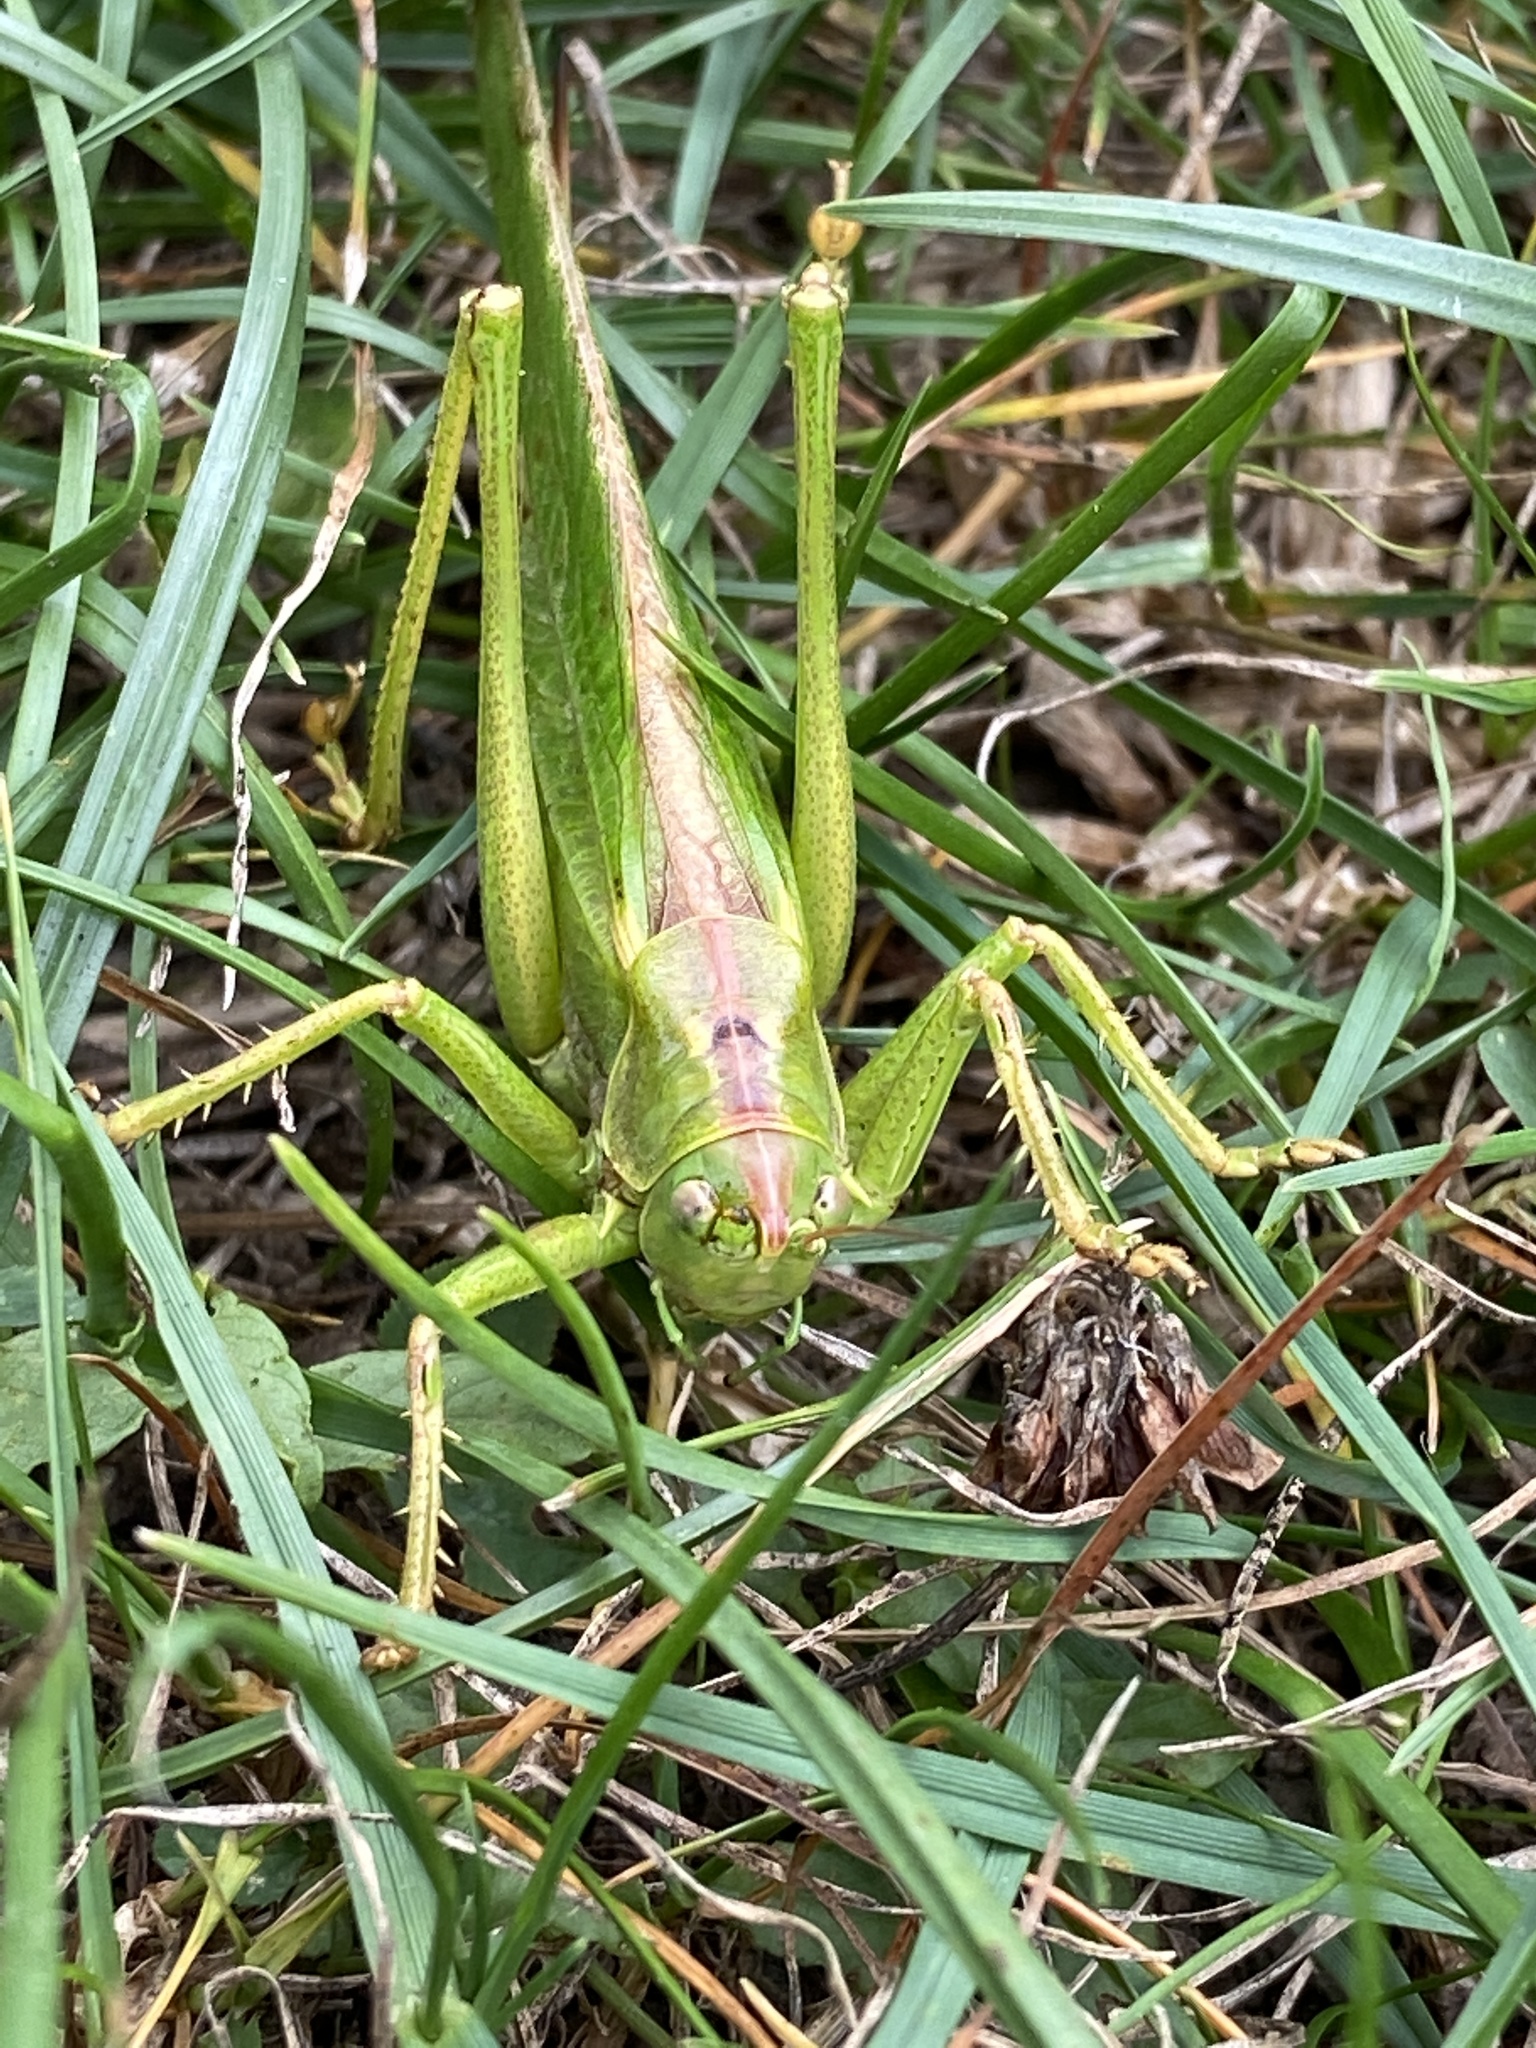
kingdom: Animalia
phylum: Arthropoda
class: Insecta
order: Orthoptera
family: Tettigoniidae
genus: Tettigonia
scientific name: Tettigonia viridissima
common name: Great green bush-cricket
